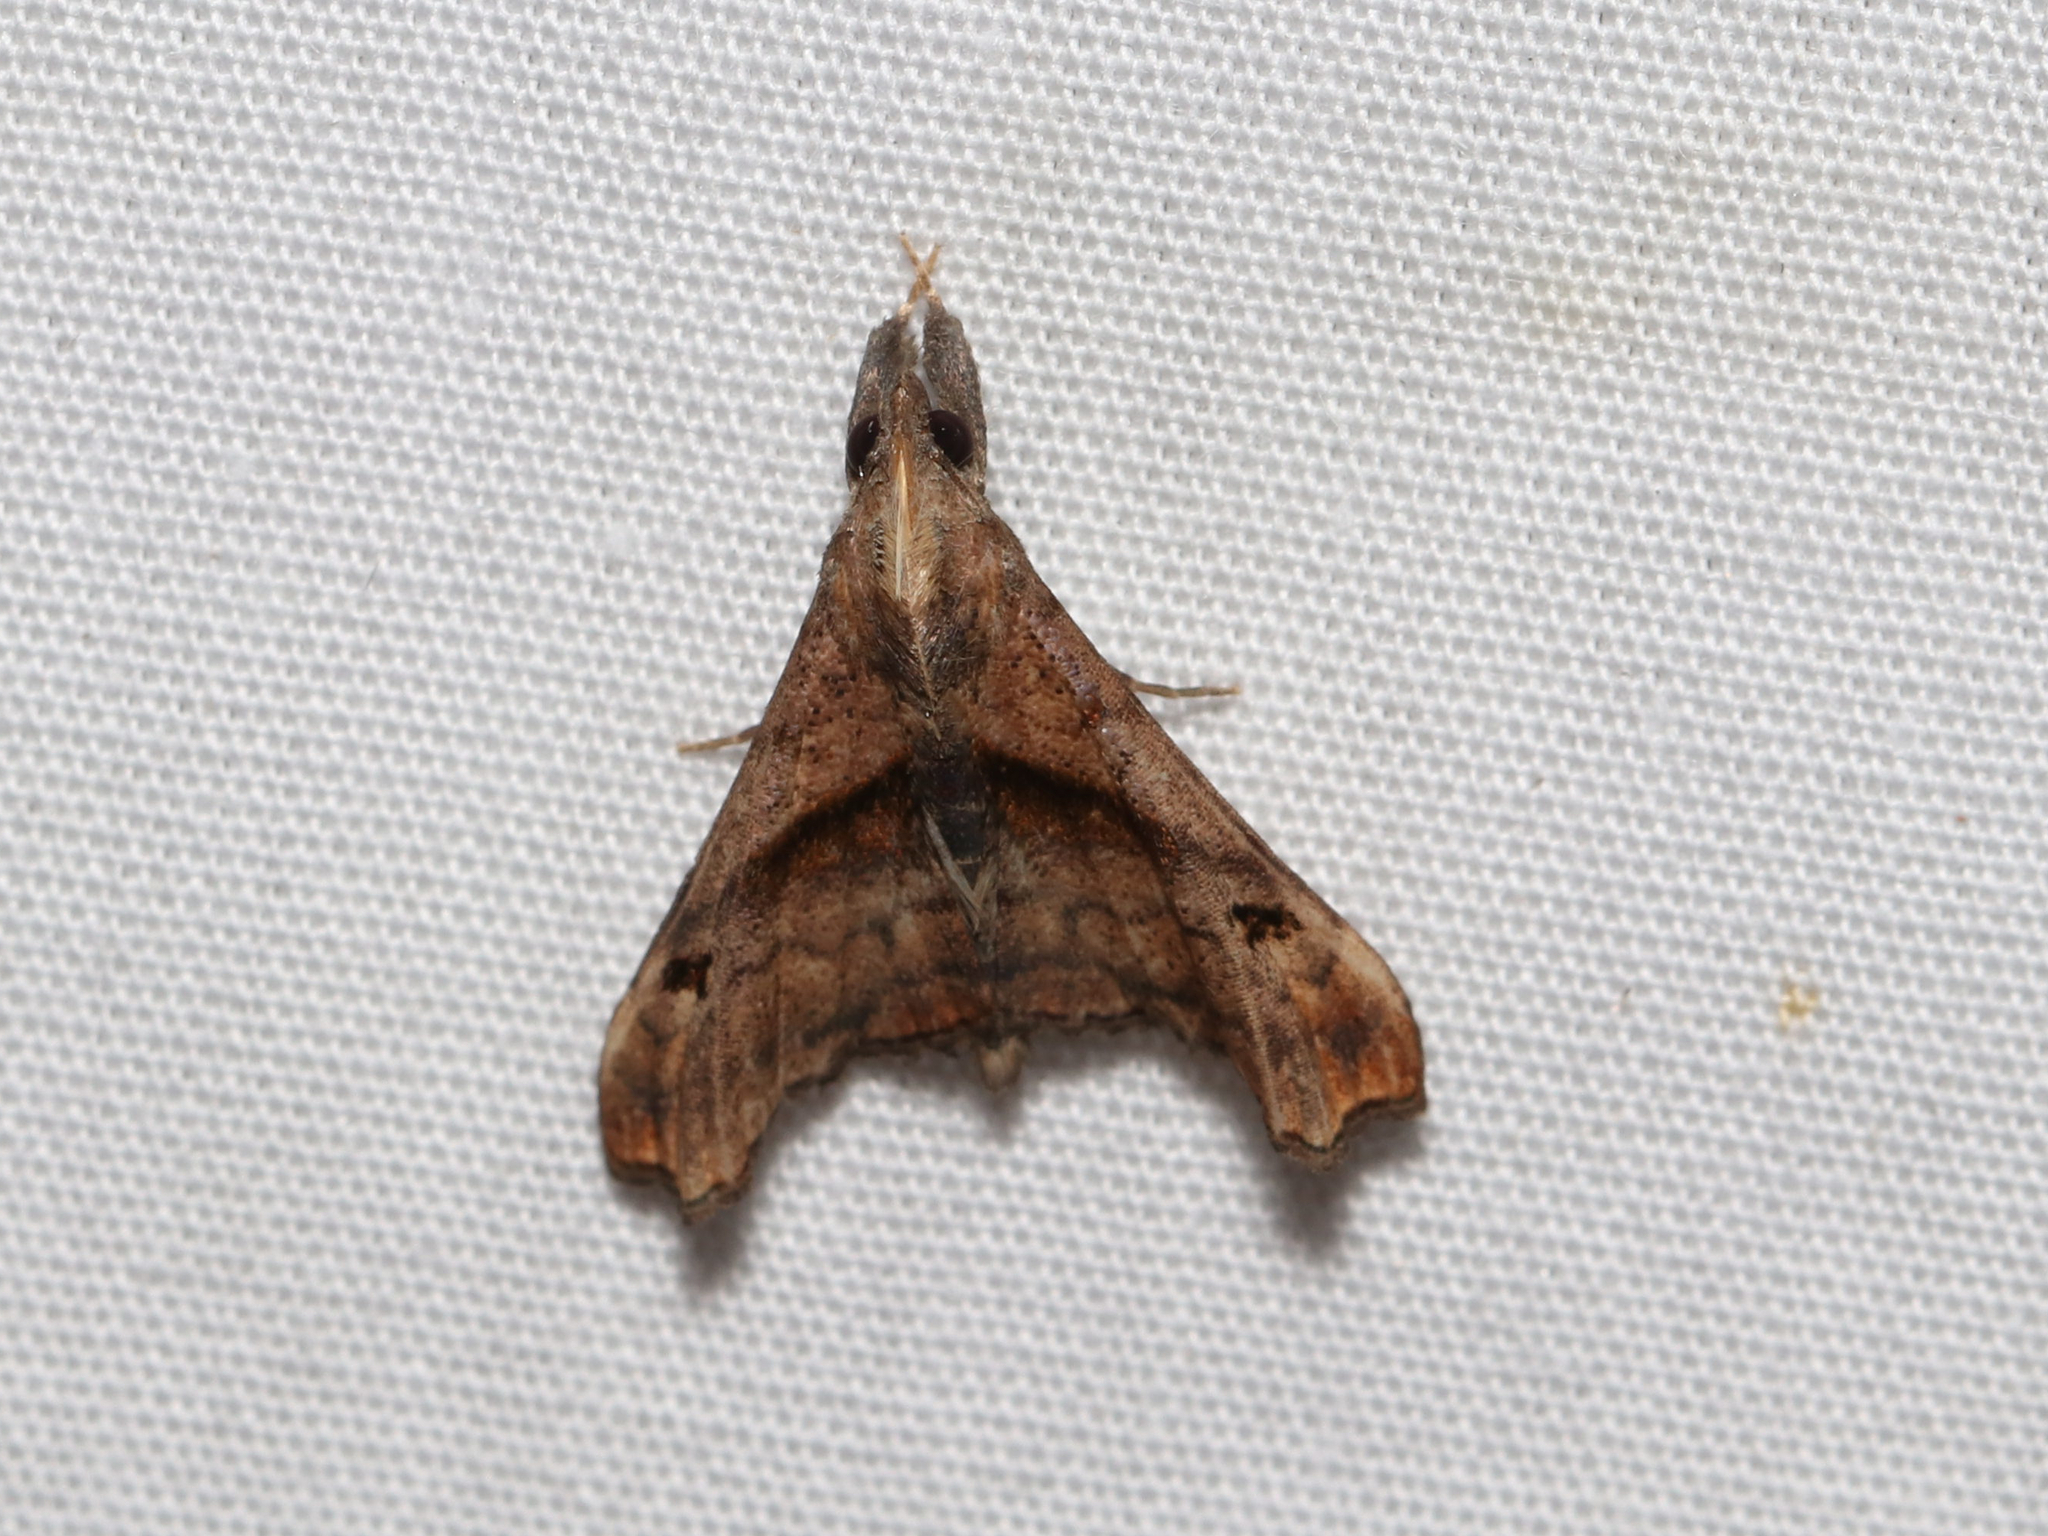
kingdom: Animalia
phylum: Arthropoda
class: Insecta
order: Lepidoptera
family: Erebidae
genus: Palthis
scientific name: Palthis angulalis
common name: Dark-spotted palthis moth
